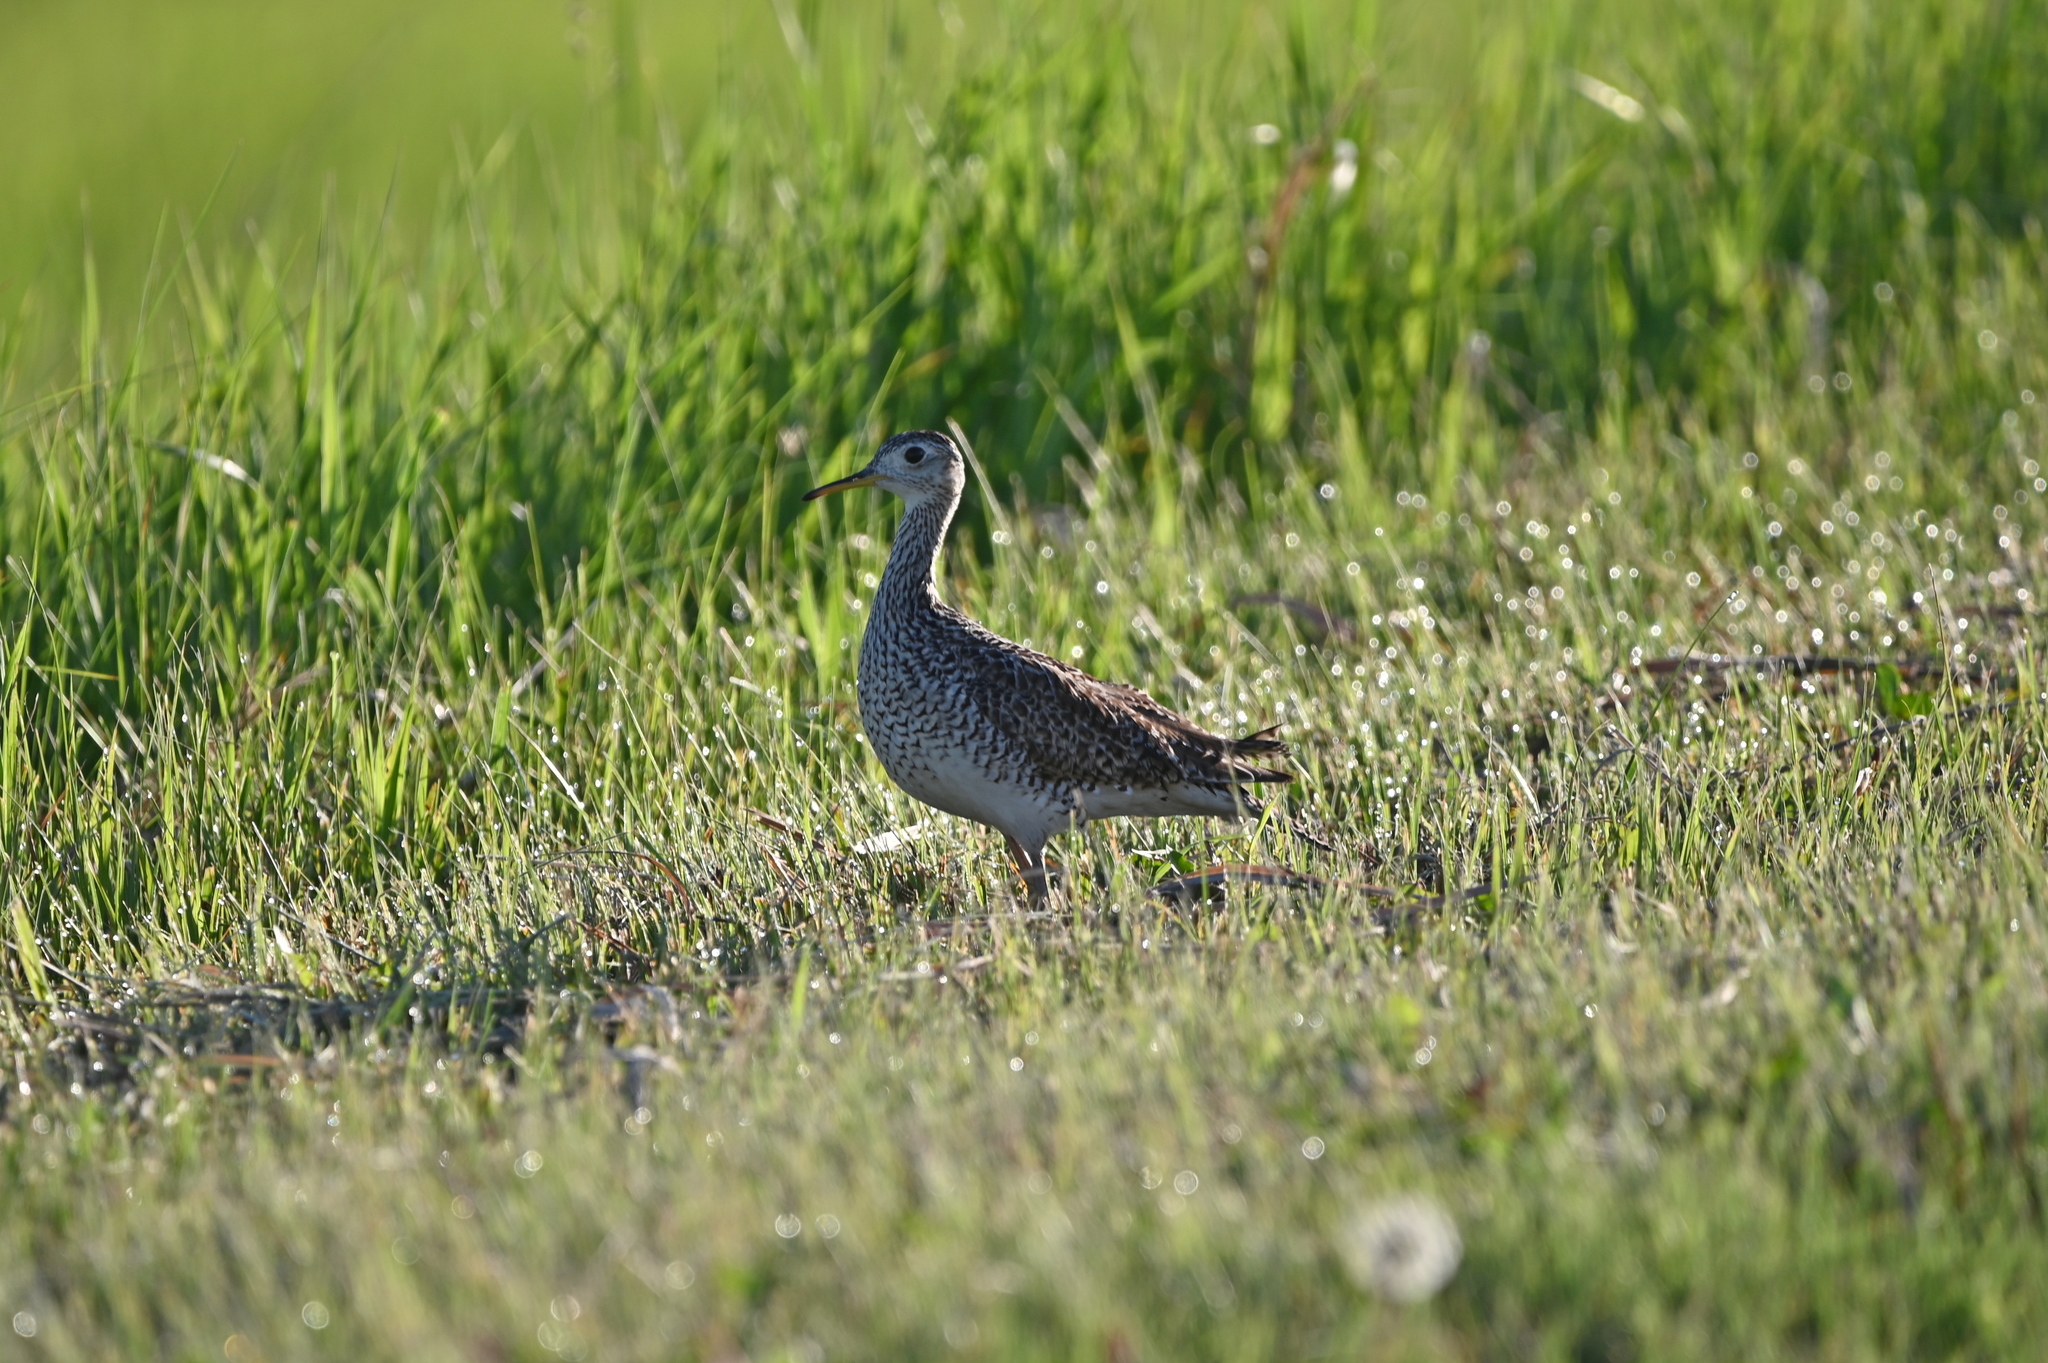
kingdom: Animalia
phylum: Chordata
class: Aves
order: Charadriiformes
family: Scolopacidae
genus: Bartramia
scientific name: Bartramia longicauda
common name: Upland sandpiper
